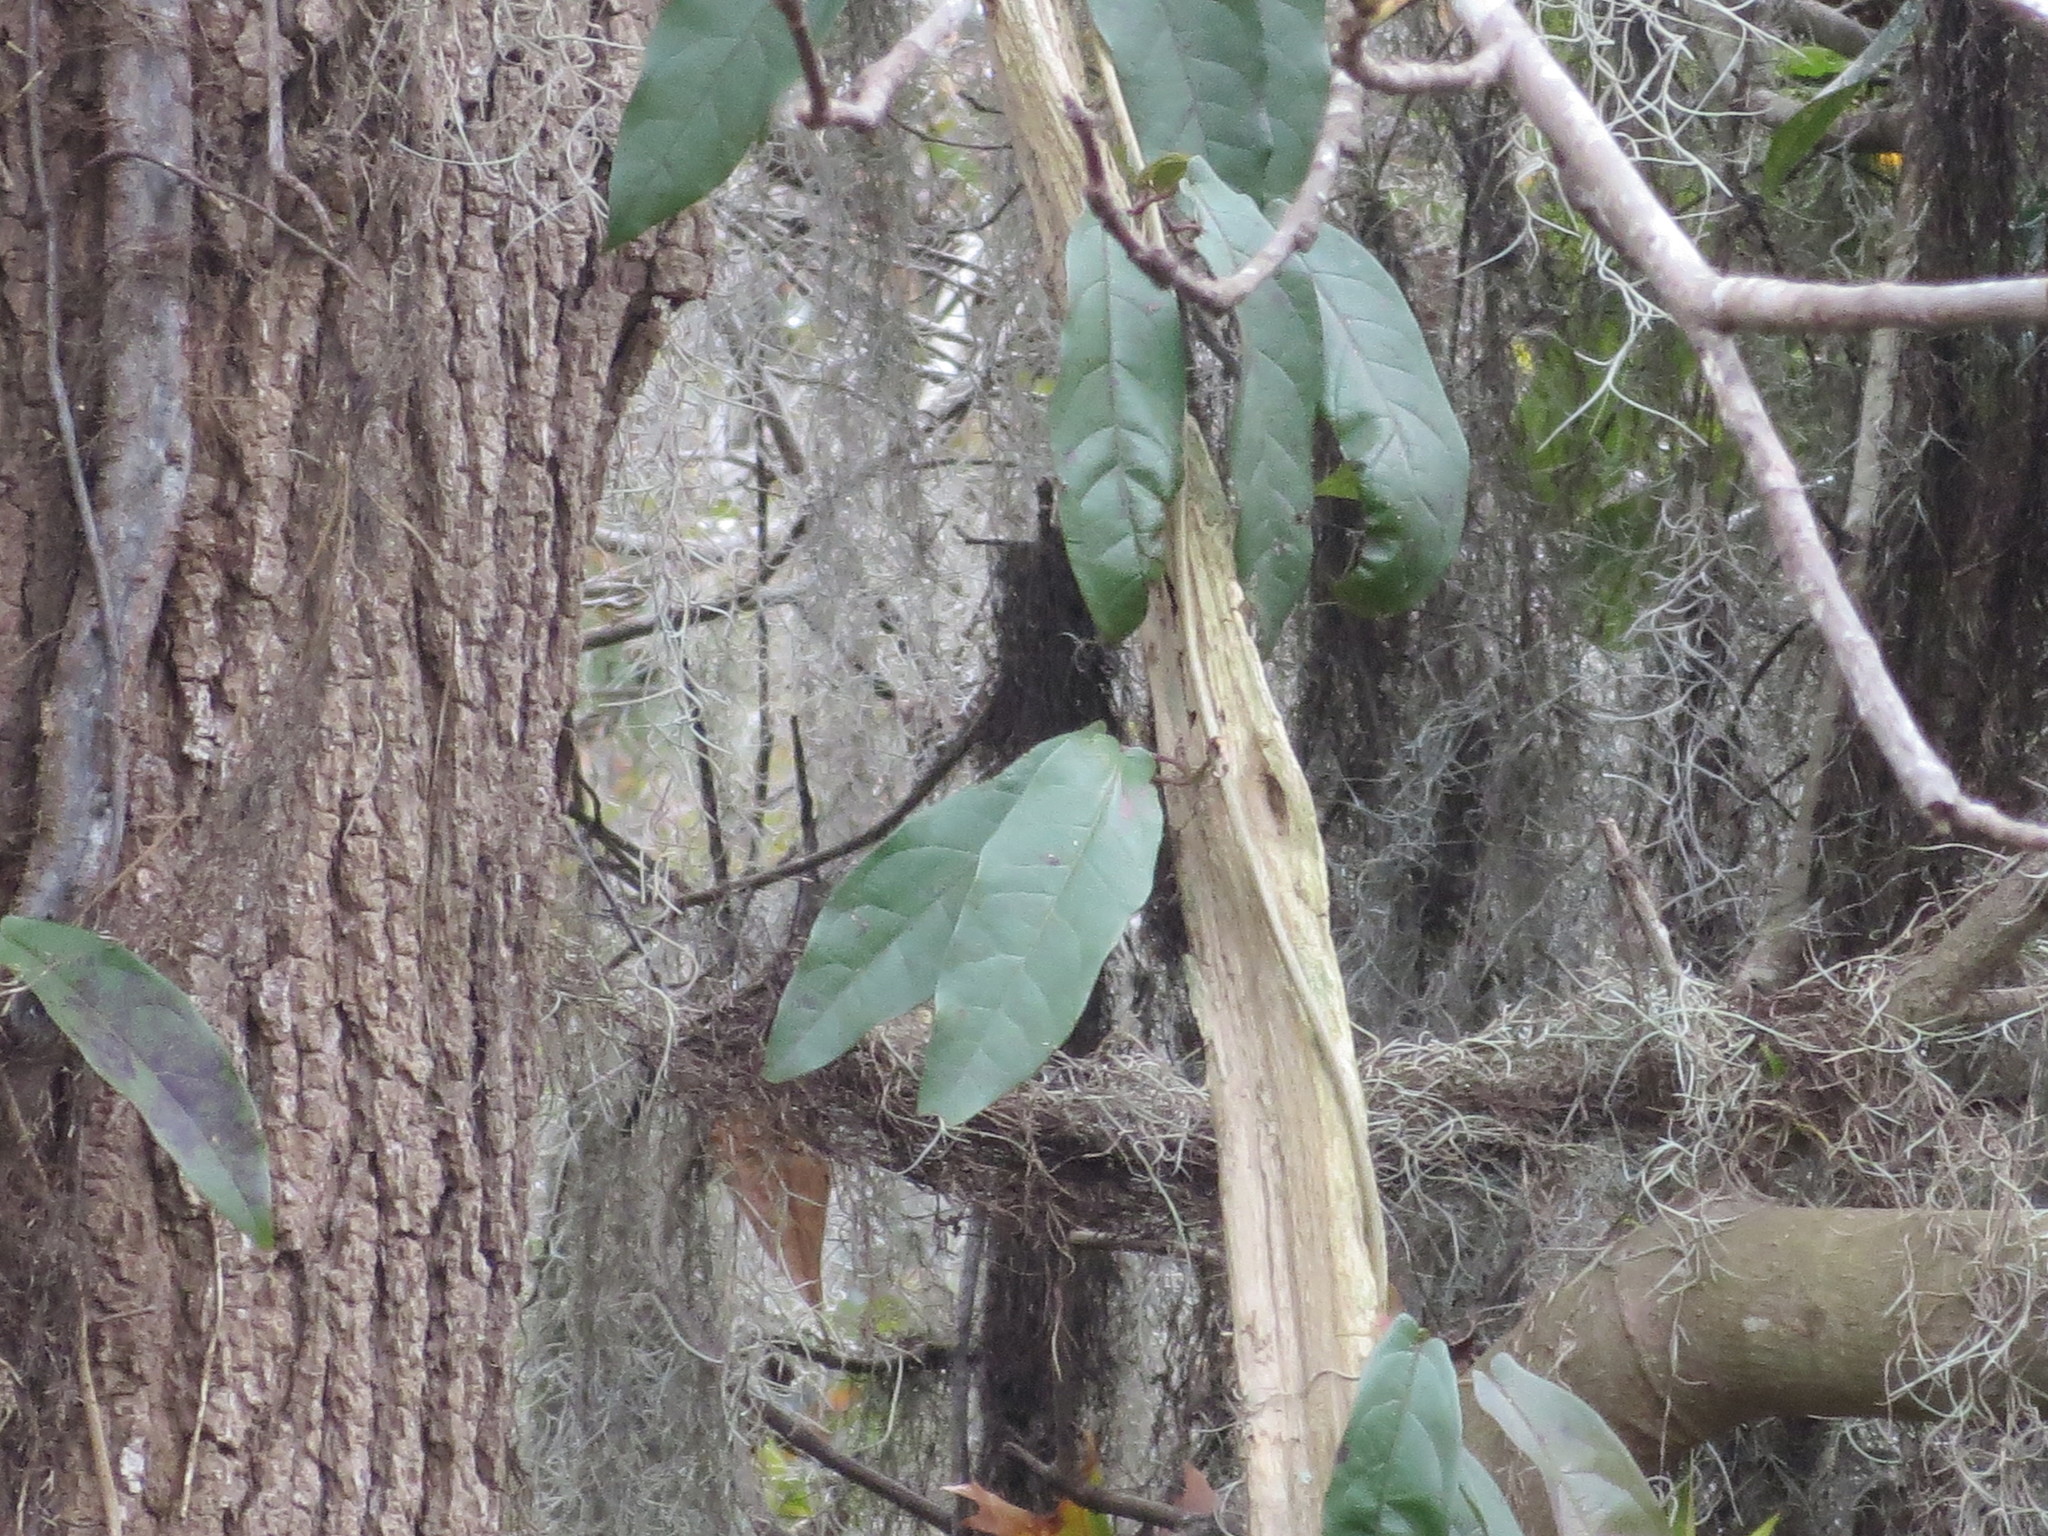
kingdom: Plantae
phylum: Tracheophyta
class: Magnoliopsida
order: Lamiales
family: Bignoniaceae
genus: Bignonia
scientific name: Bignonia capreolata
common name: Crossvine
